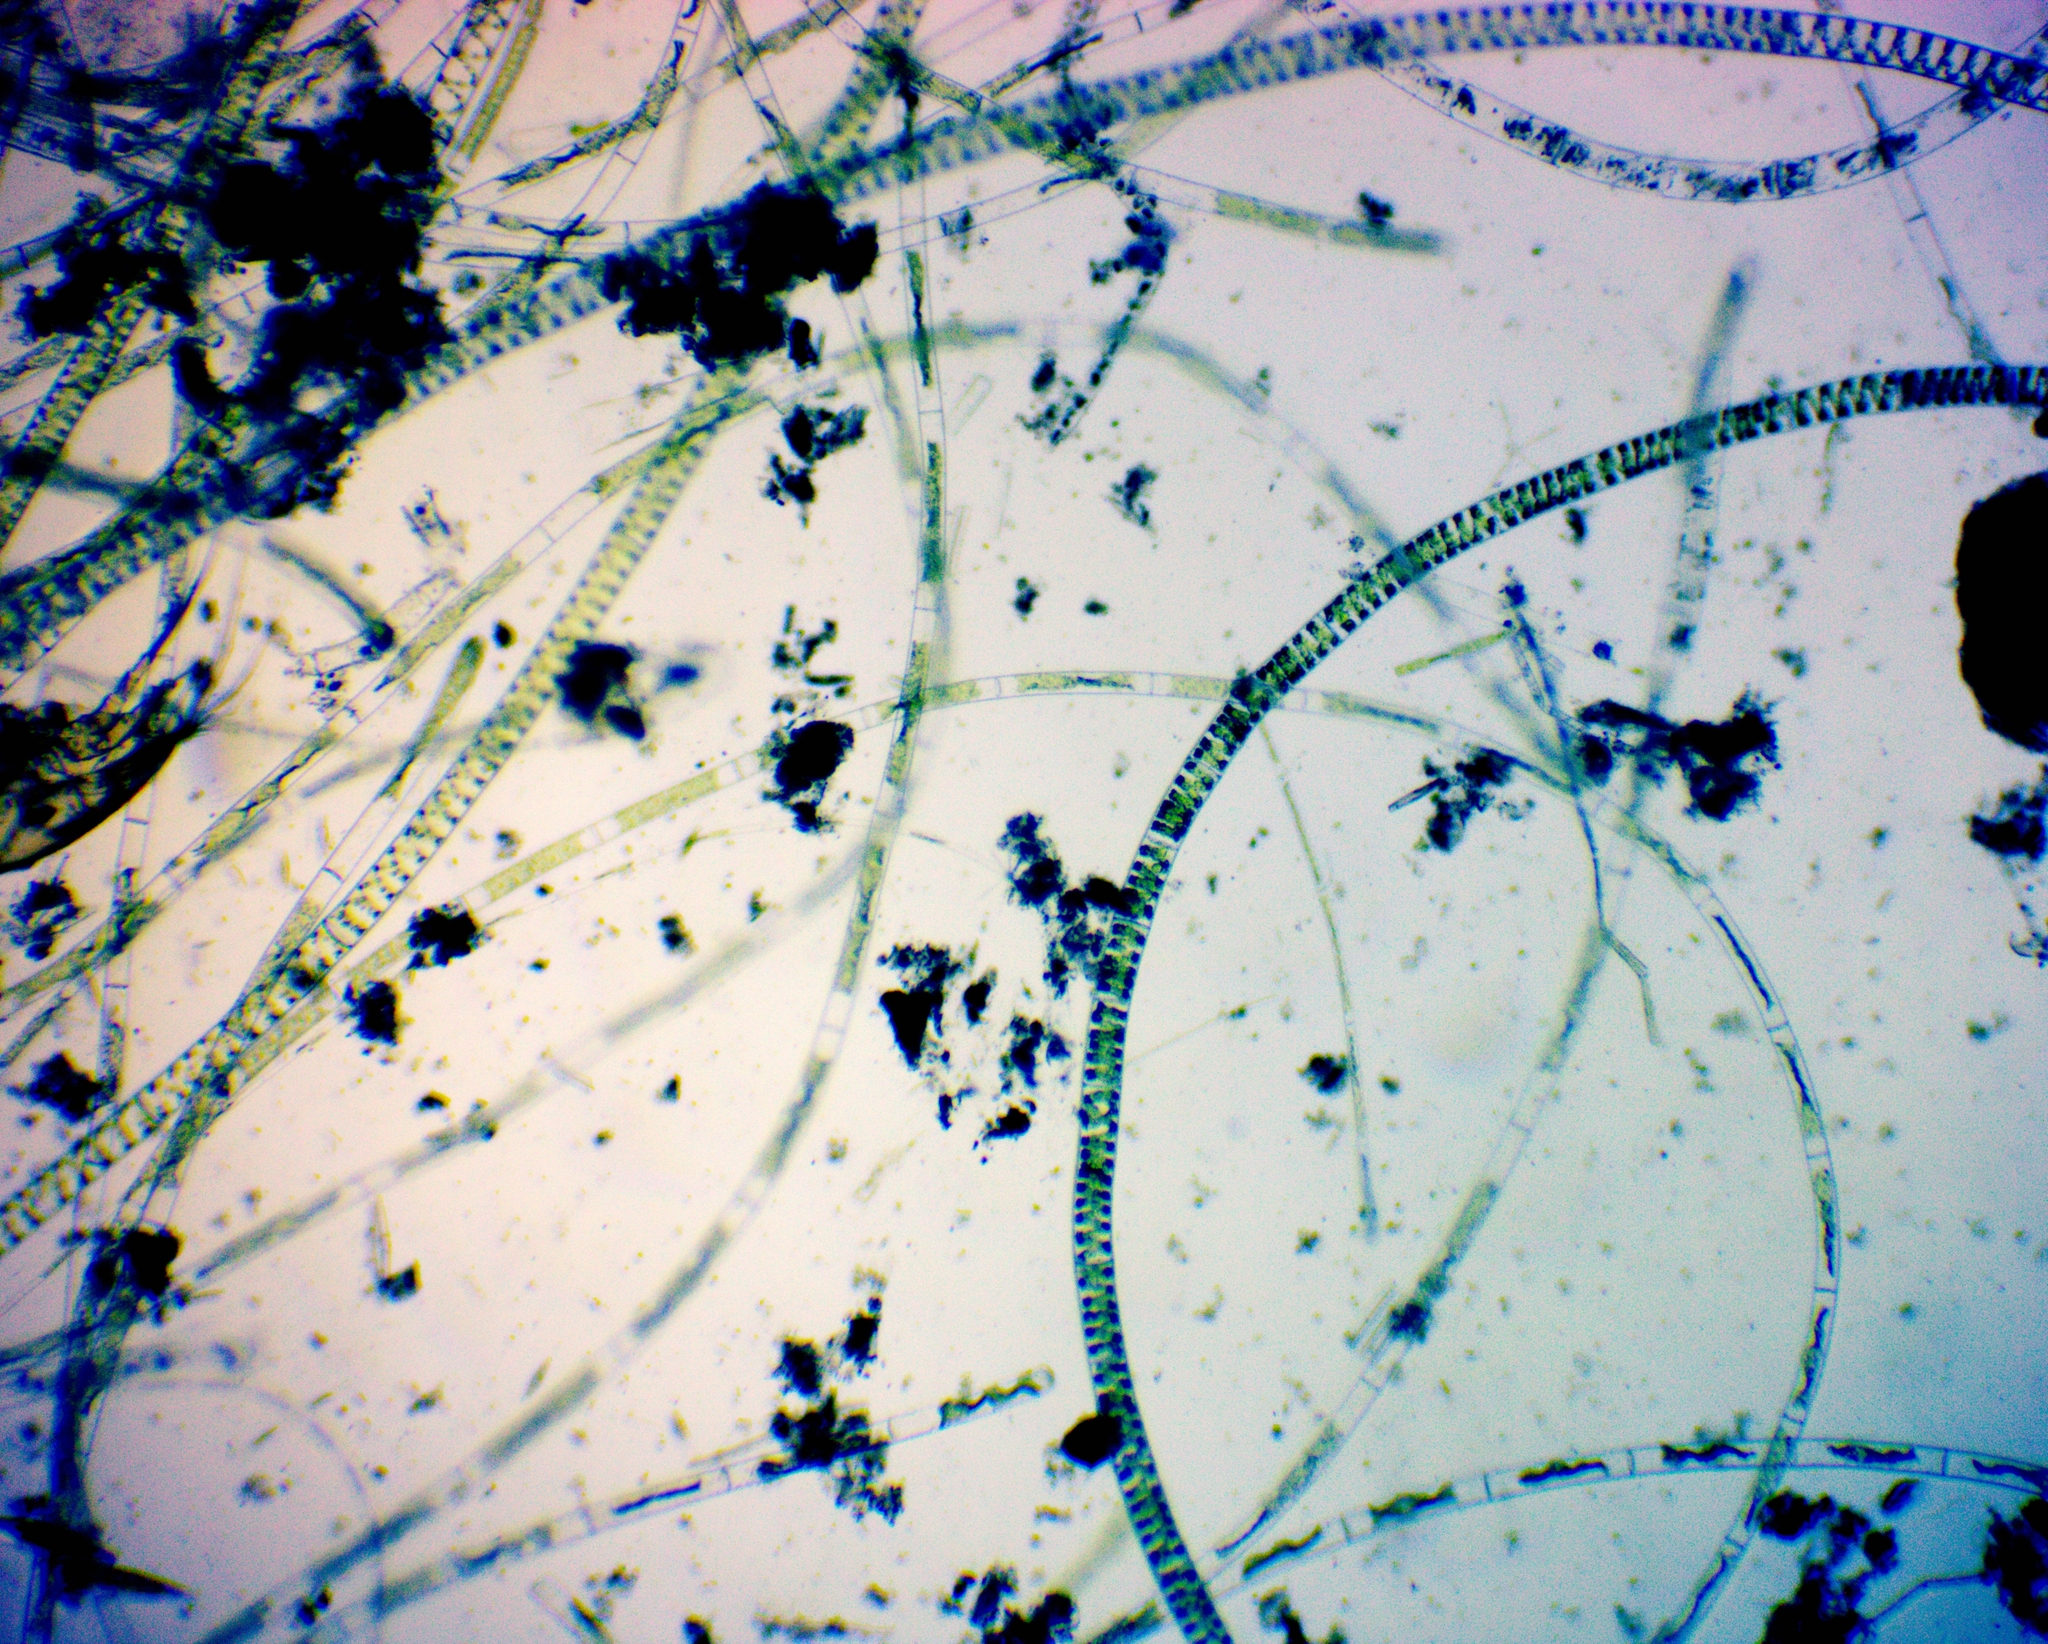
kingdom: Plantae
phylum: Charophyta
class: Zygnematophyceae
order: Zygnematales
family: Zygnemataceae
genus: Spirogyra
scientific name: Spirogyra
